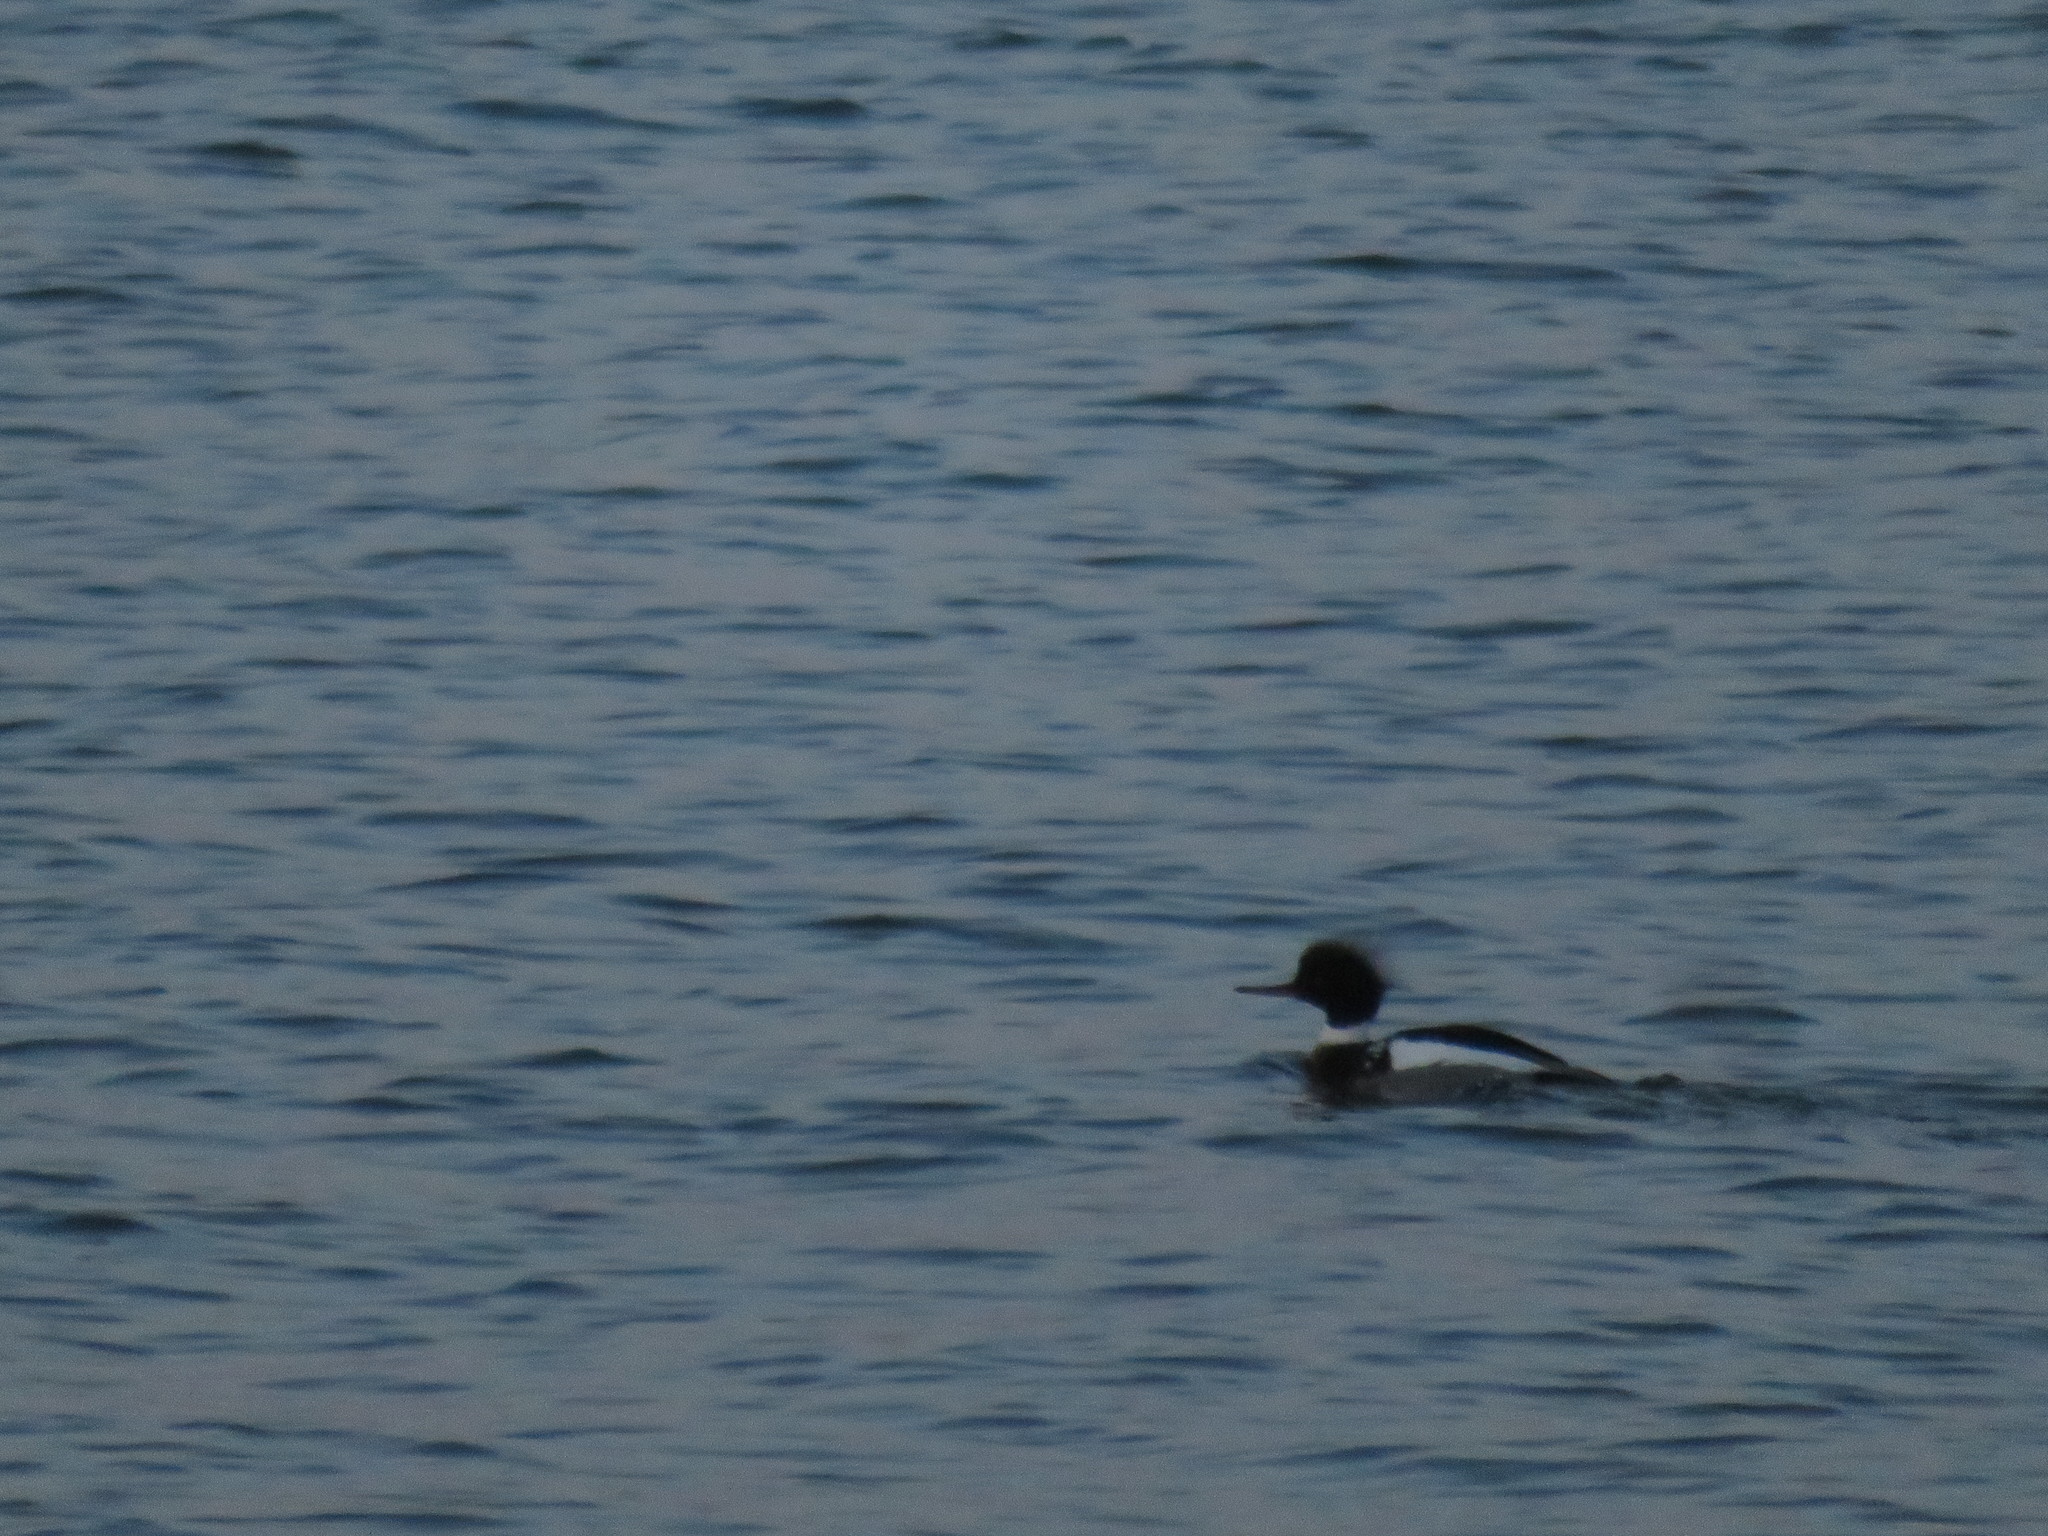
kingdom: Animalia
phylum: Chordata
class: Aves
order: Anseriformes
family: Anatidae
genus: Mergus
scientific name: Mergus serrator
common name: Red-breasted merganser
